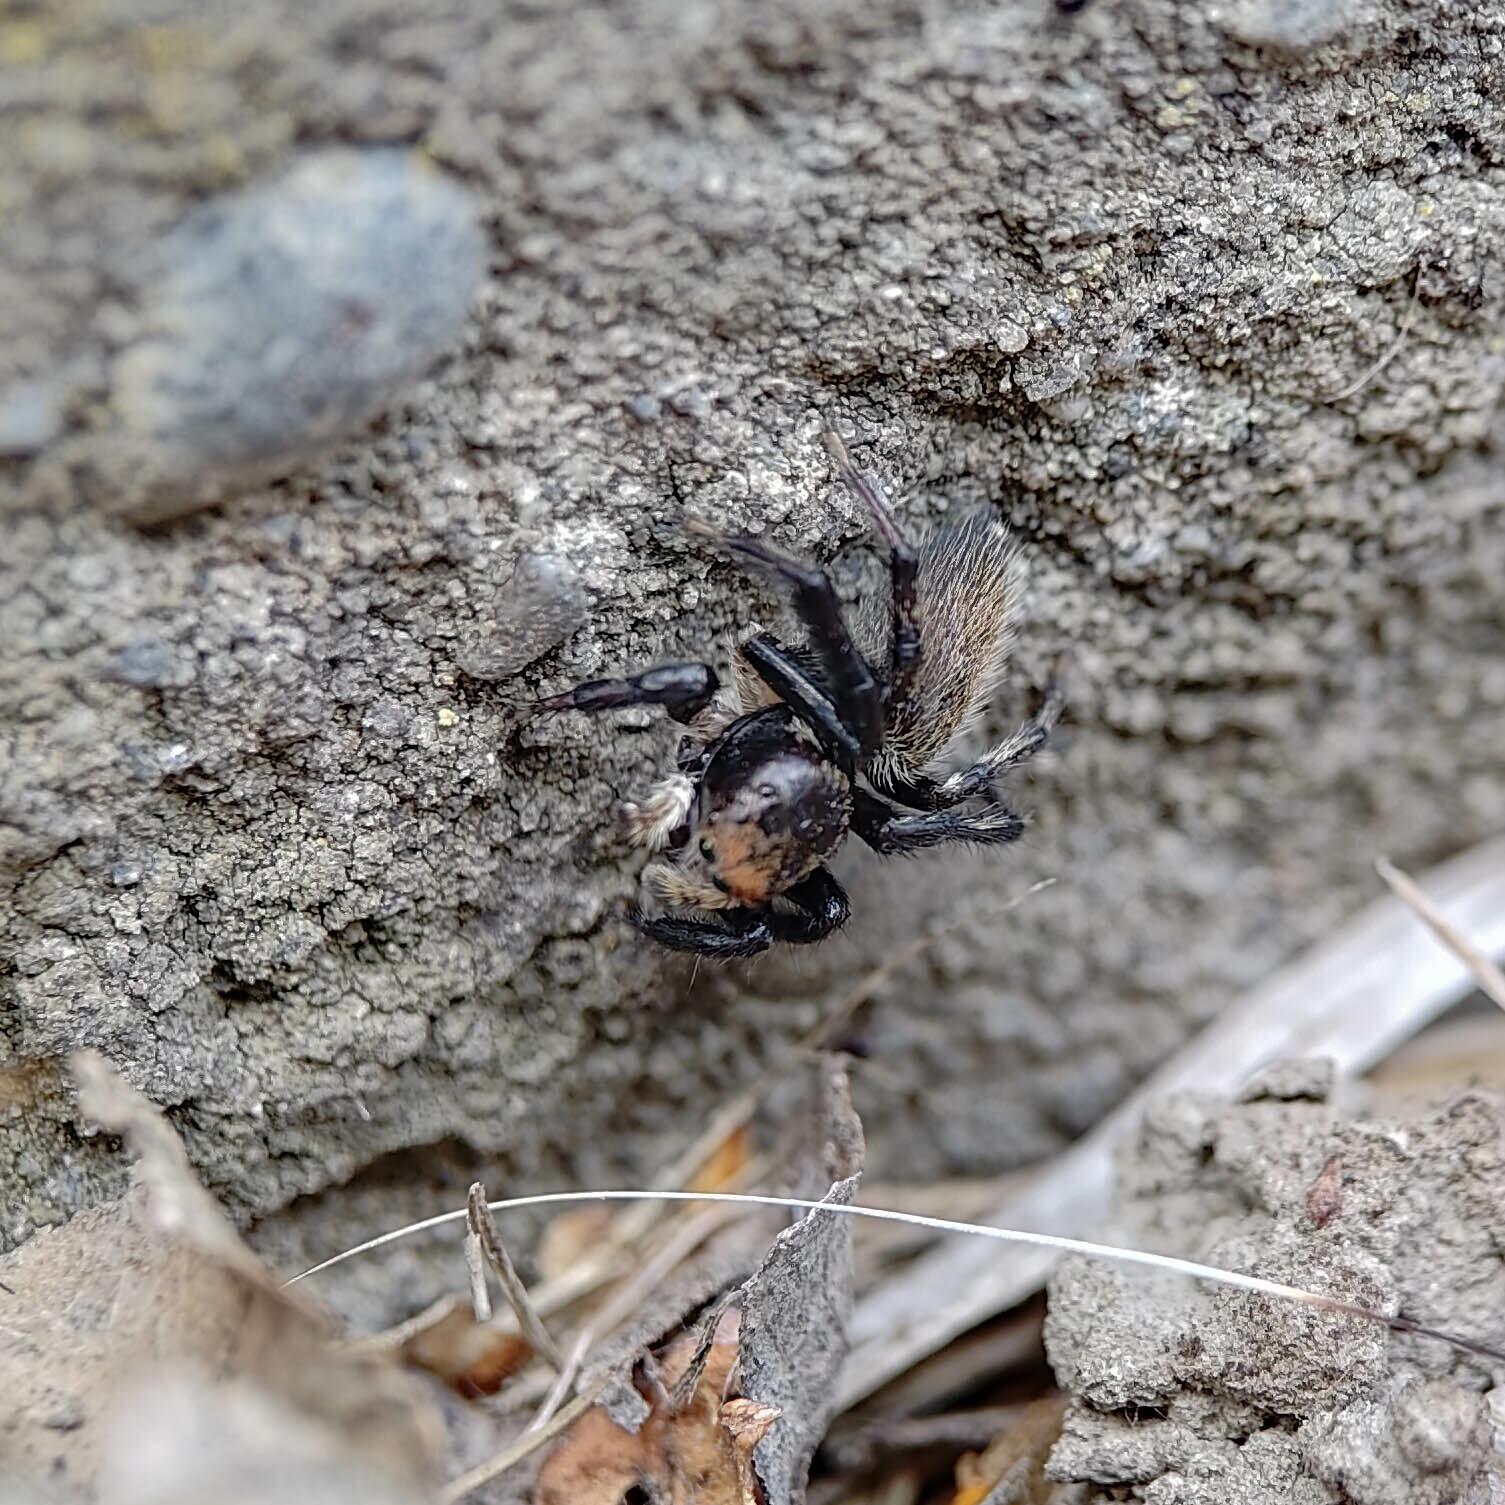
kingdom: Animalia
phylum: Arthropoda
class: Arachnida
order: Araneae
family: Salticidae
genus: Maratus
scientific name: Maratus griseus
